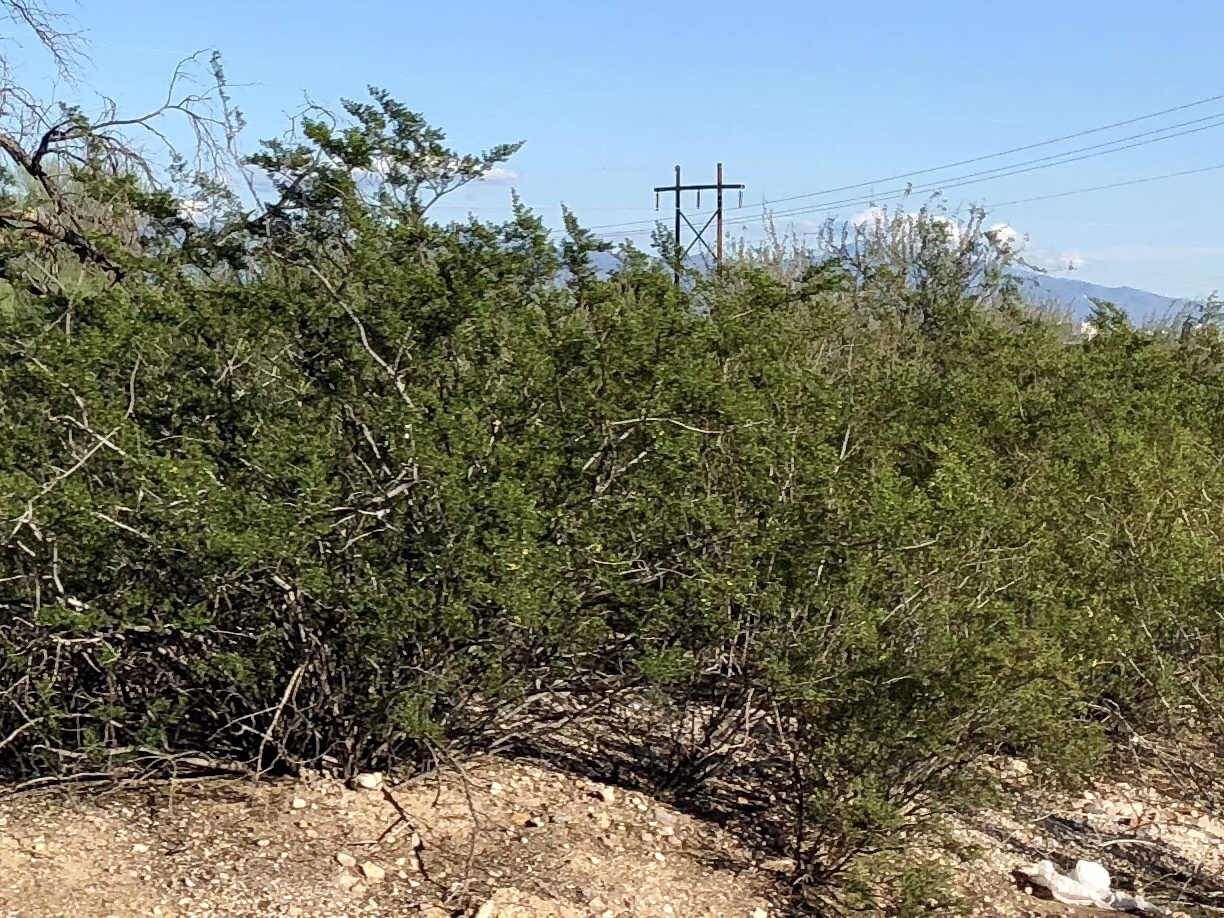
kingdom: Plantae
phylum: Tracheophyta
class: Magnoliopsida
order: Zygophyllales
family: Zygophyllaceae
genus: Larrea
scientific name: Larrea tridentata
